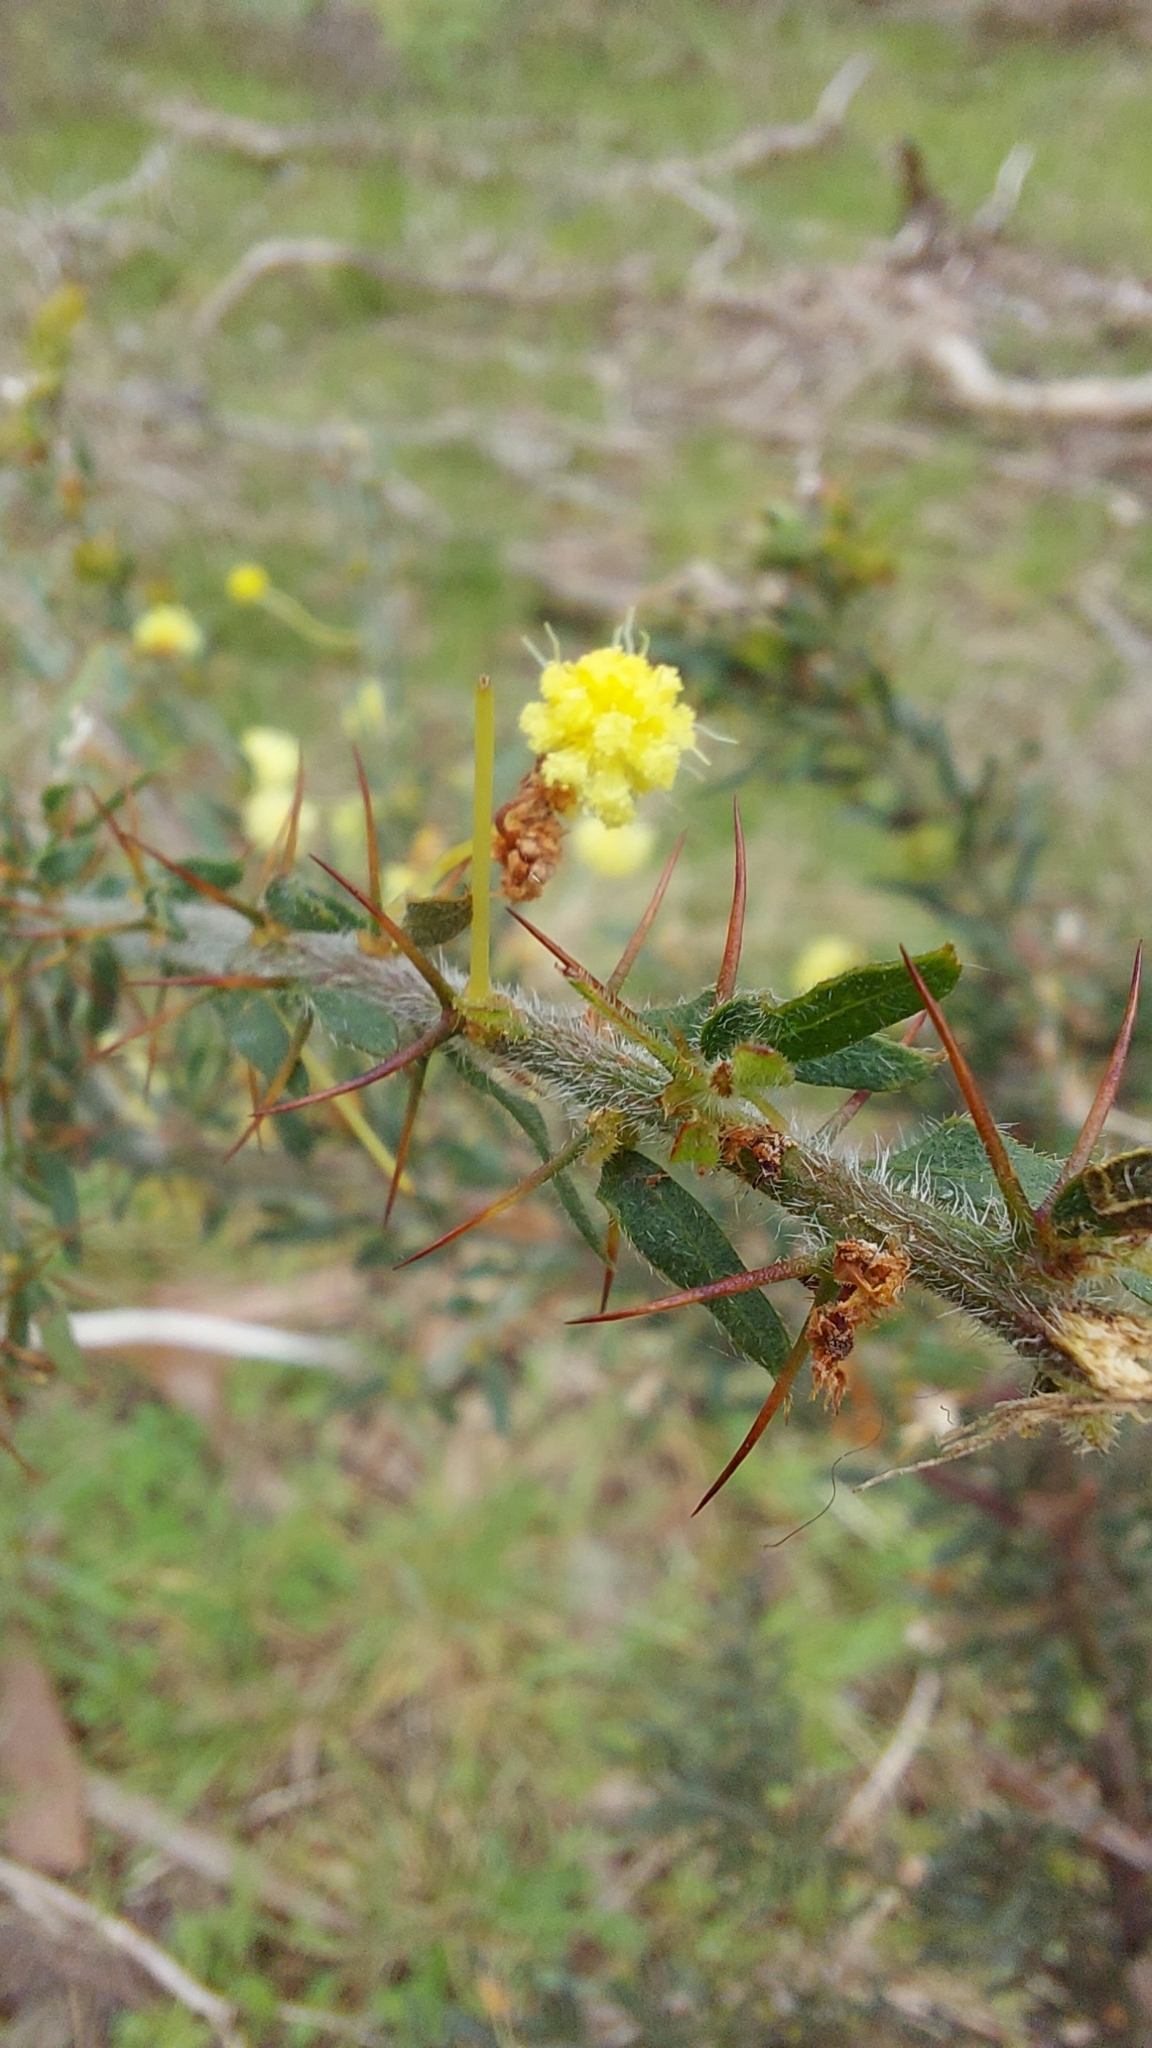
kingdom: Plantae
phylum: Tracheophyta
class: Magnoliopsida
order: Fabales
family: Fabaceae
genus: Acacia
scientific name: Acacia paradoxa
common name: Paradox acacia
